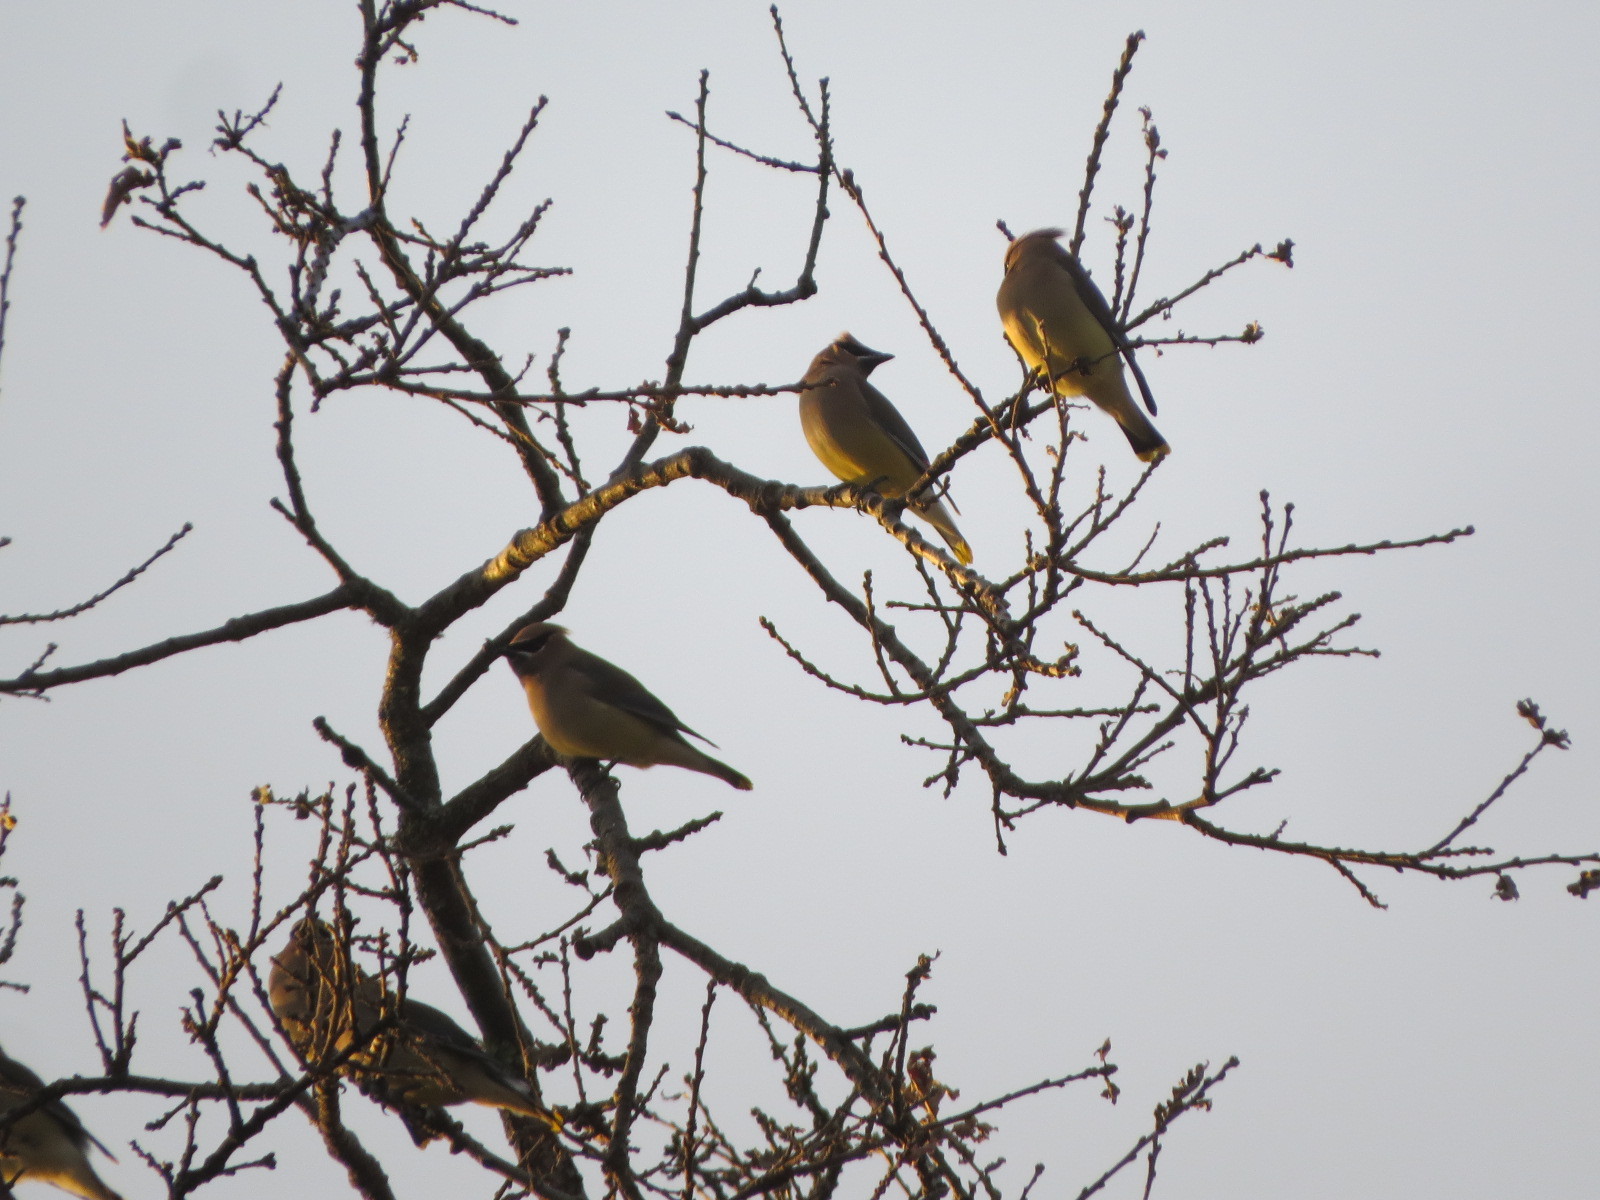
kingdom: Animalia
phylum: Chordata
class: Aves
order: Passeriformes
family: Bombycillidae
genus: Bombycilla
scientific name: Bombycilla cedrorum
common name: Cedar waxwing
